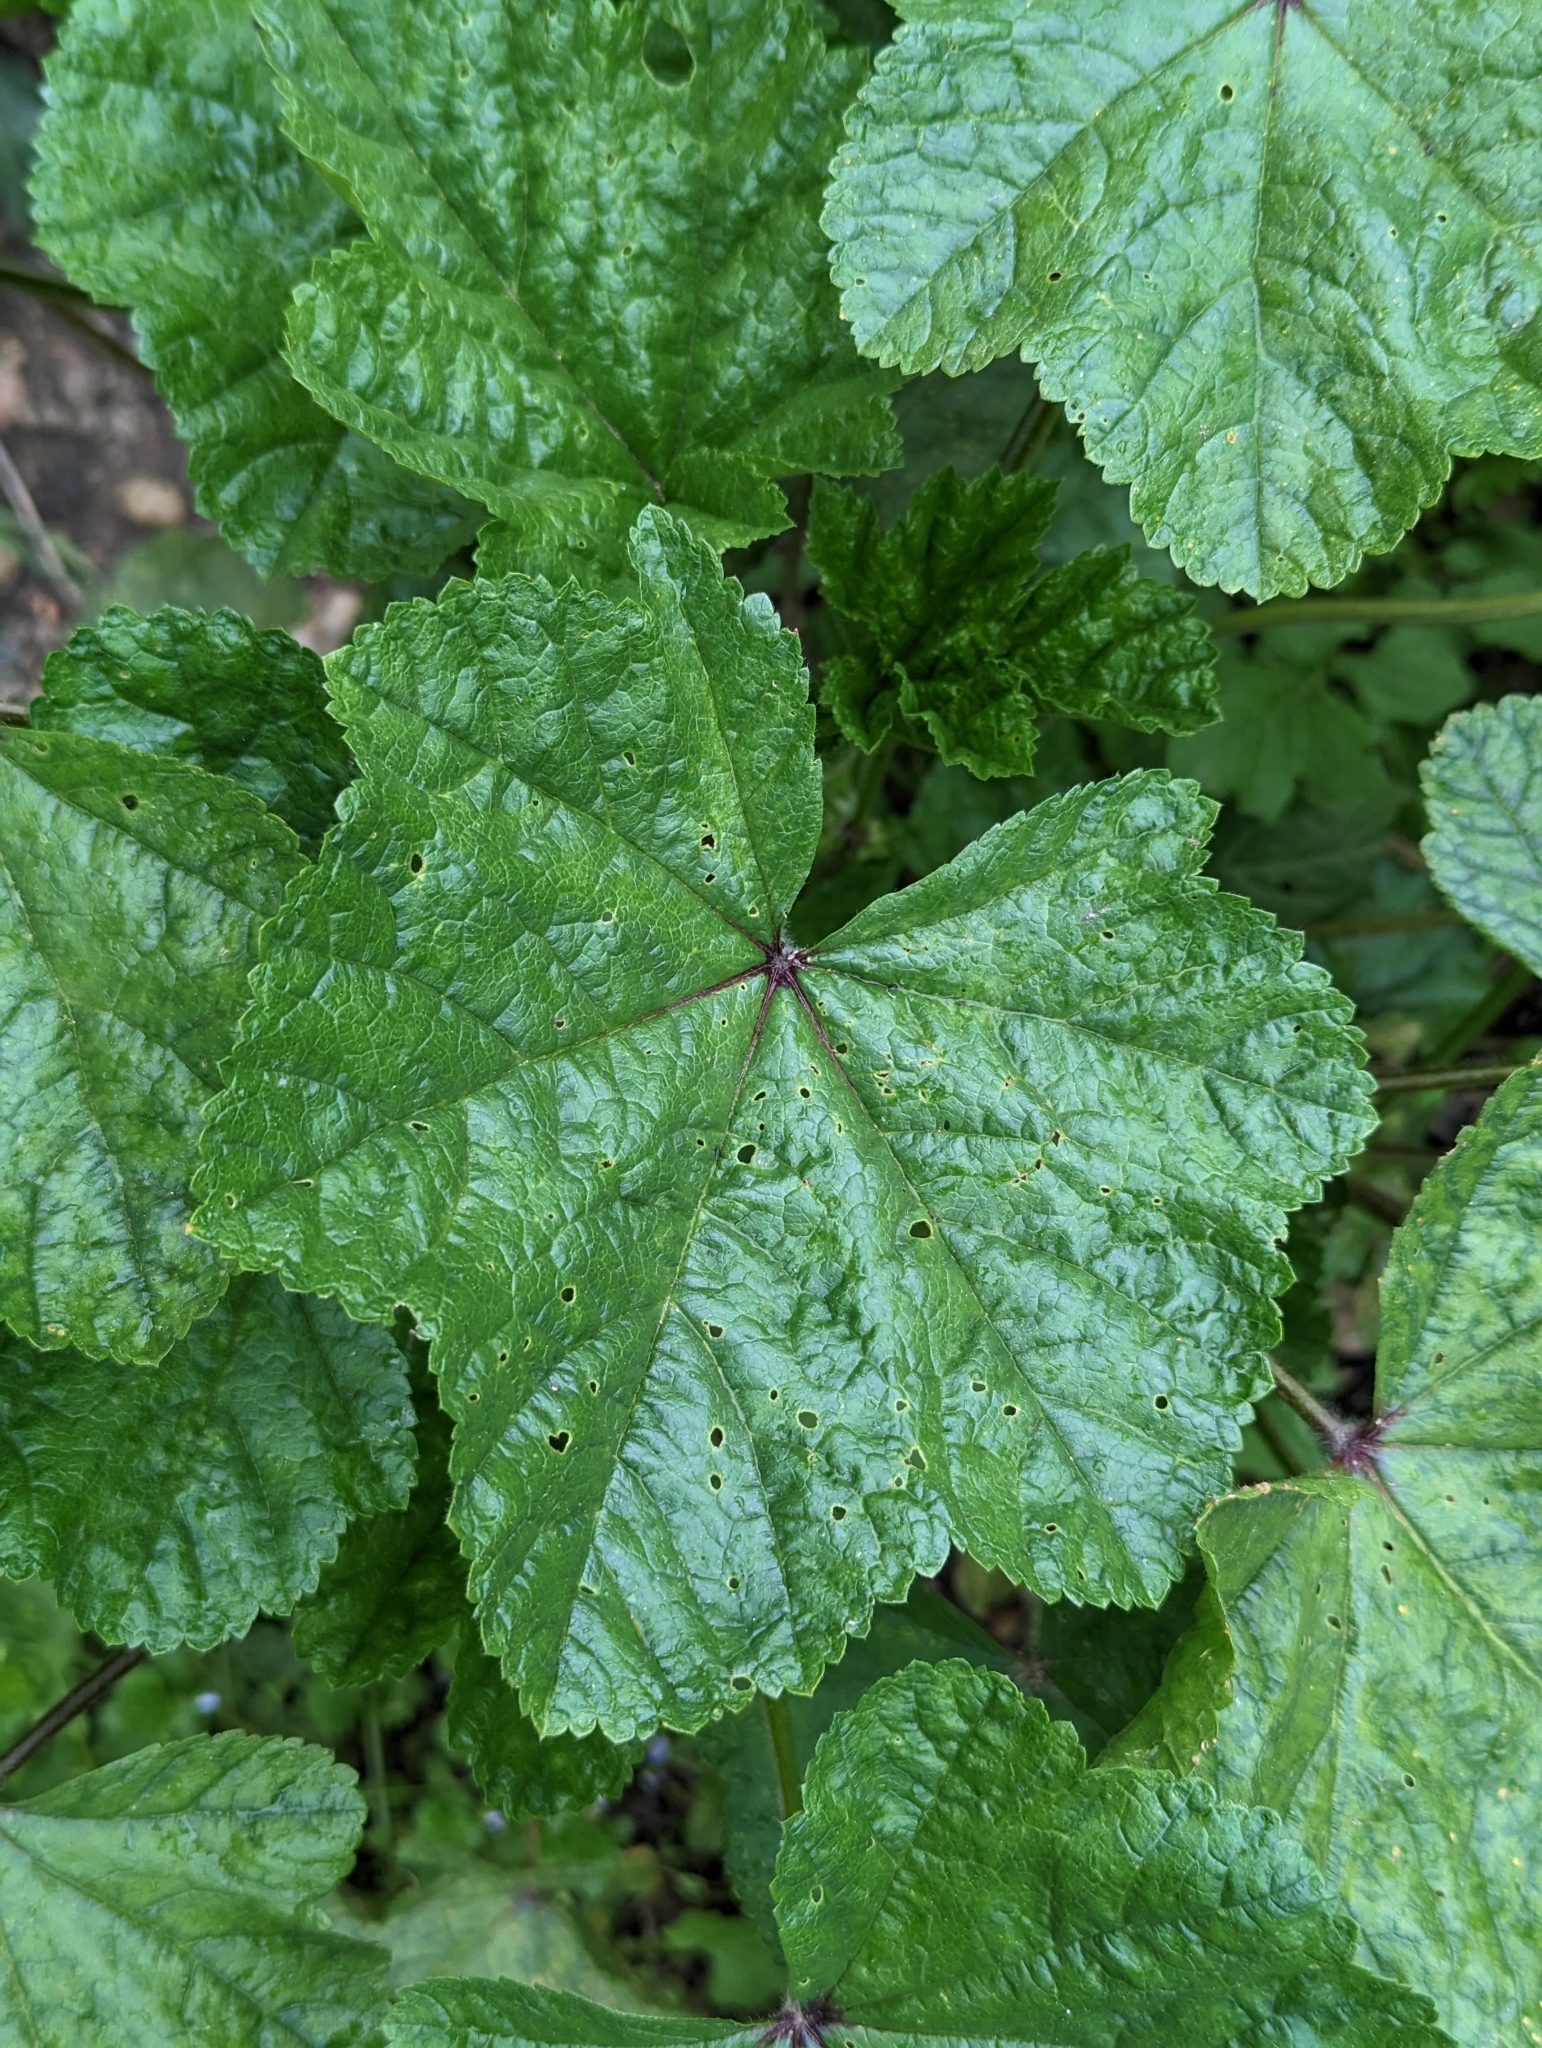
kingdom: Plantae
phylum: Tracheophyta
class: Magnoliopsida
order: Malvales
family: Malvaceae
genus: Malva
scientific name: Malva sylvestris
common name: Common mallow
